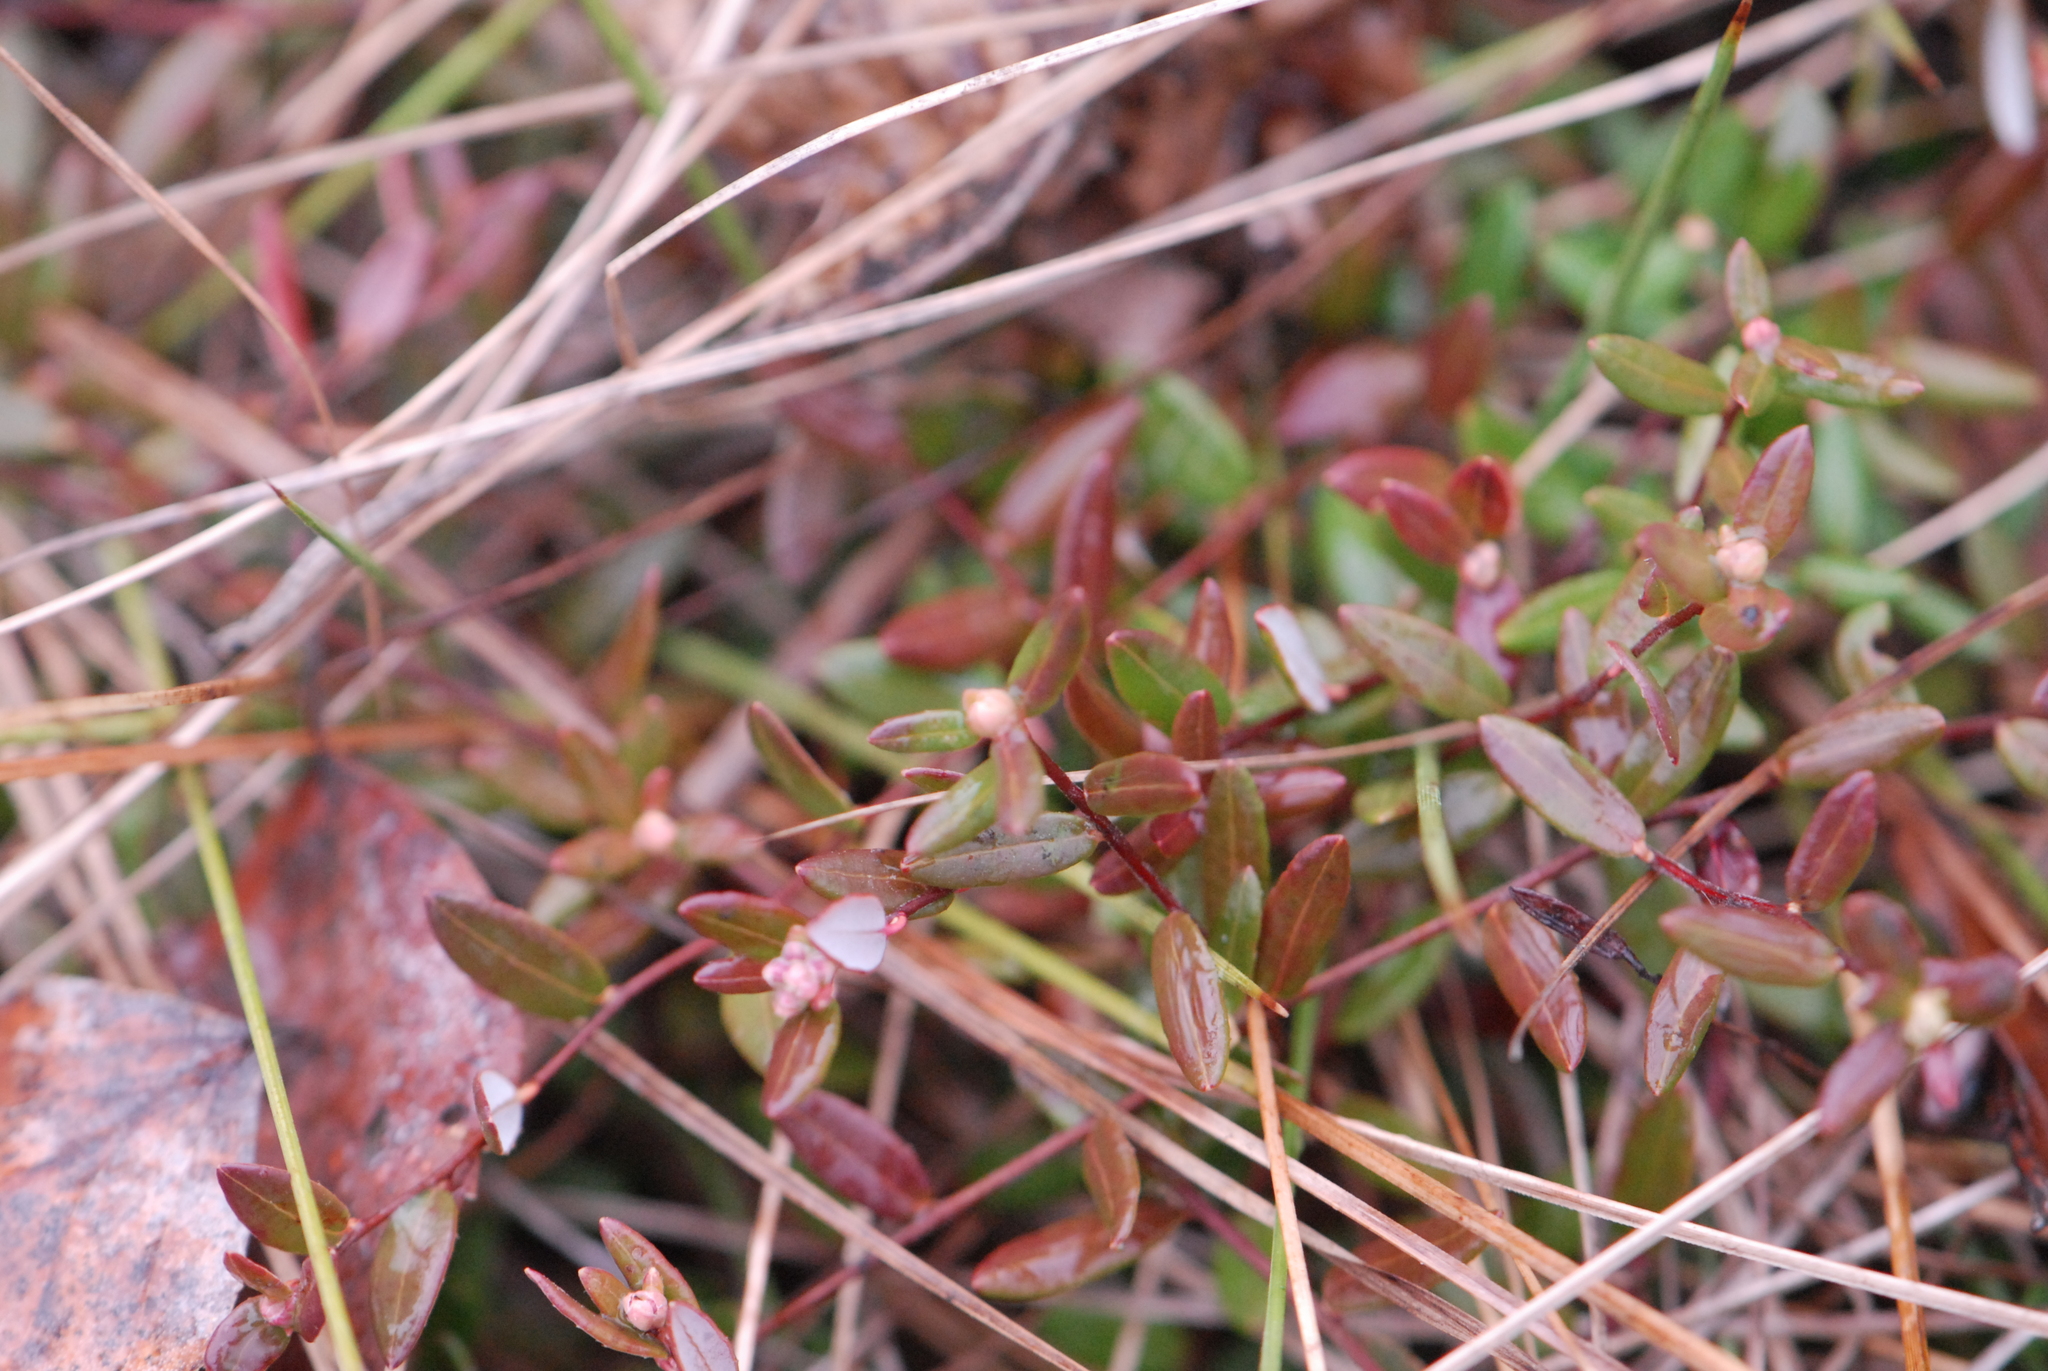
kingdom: Plantae
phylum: Tracheophyta
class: Magnoliopsida
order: Ericales
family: Ericaceae
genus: Vaccinium
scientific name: Vaccinium oxycoccos
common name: Cranberry
